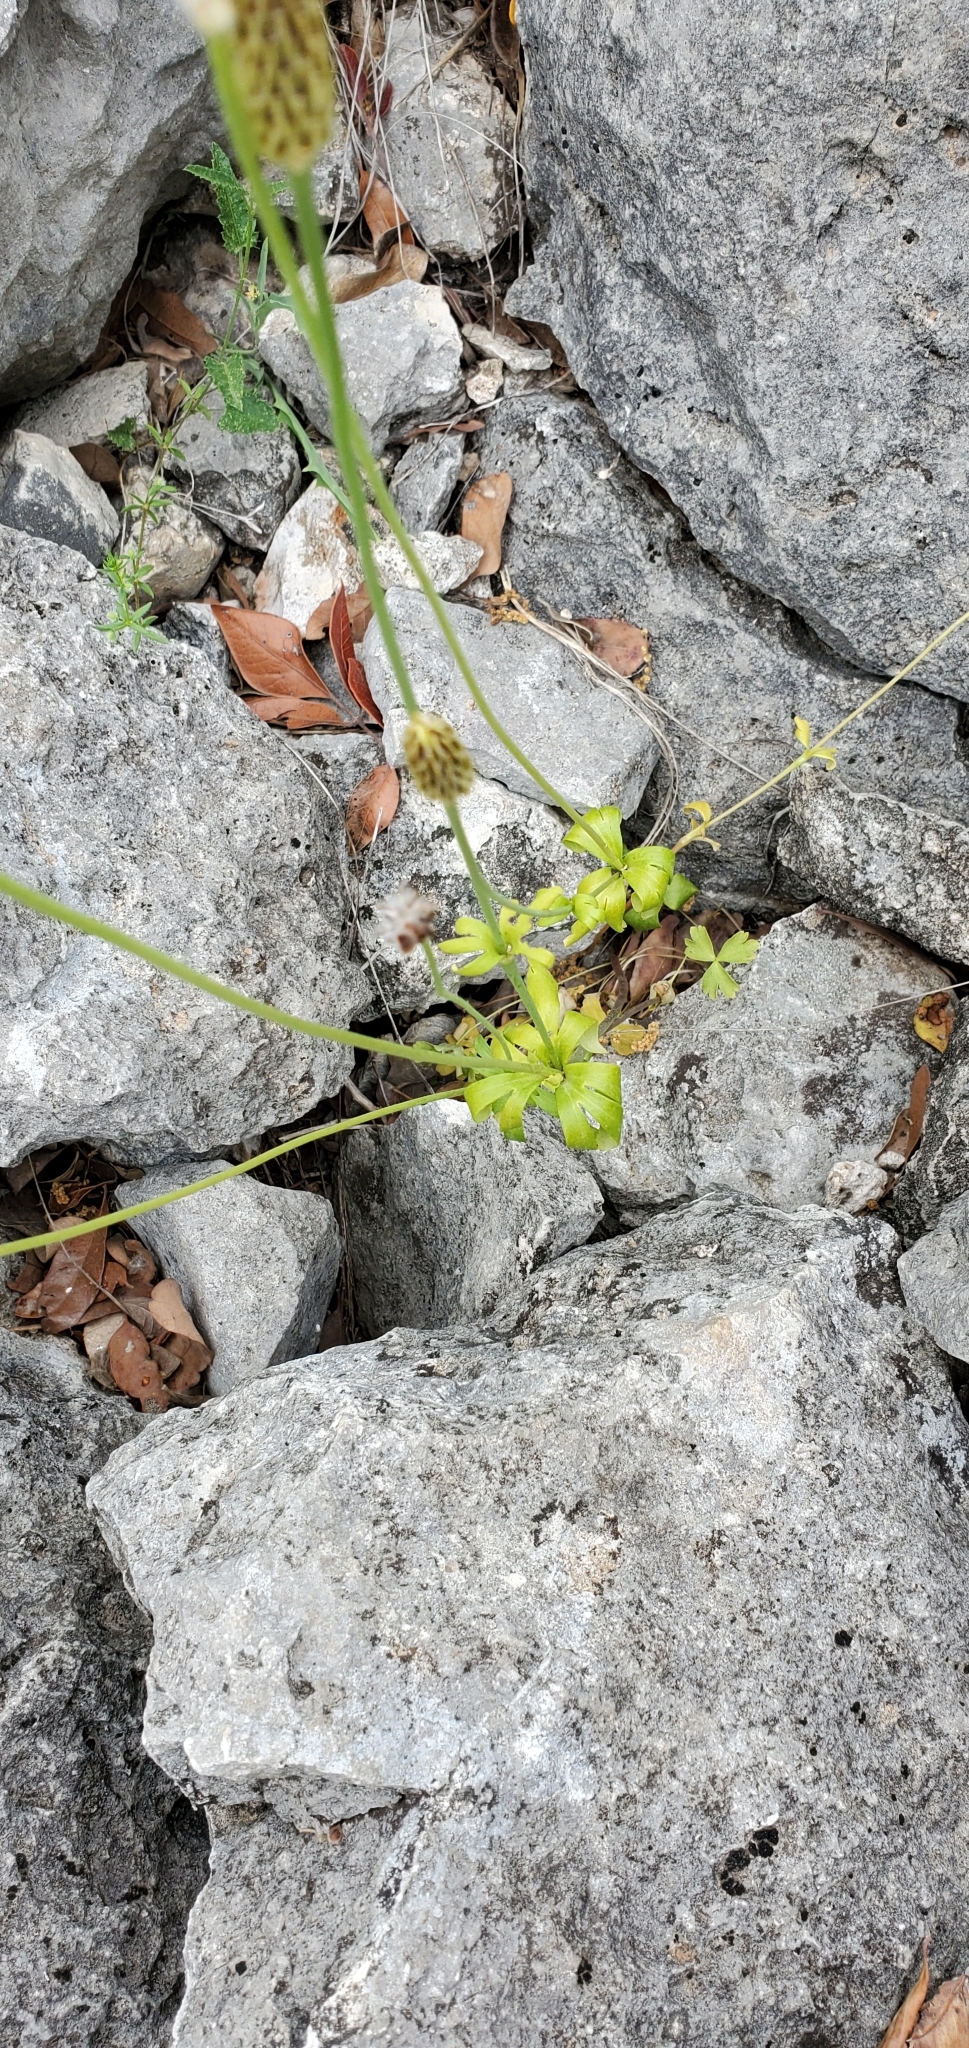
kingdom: Plantae
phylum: Tracheophyta
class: Magnoliopsida
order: Ranunculales
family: Ranunculaceae
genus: Anemone
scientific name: Anemone edwardsiana
